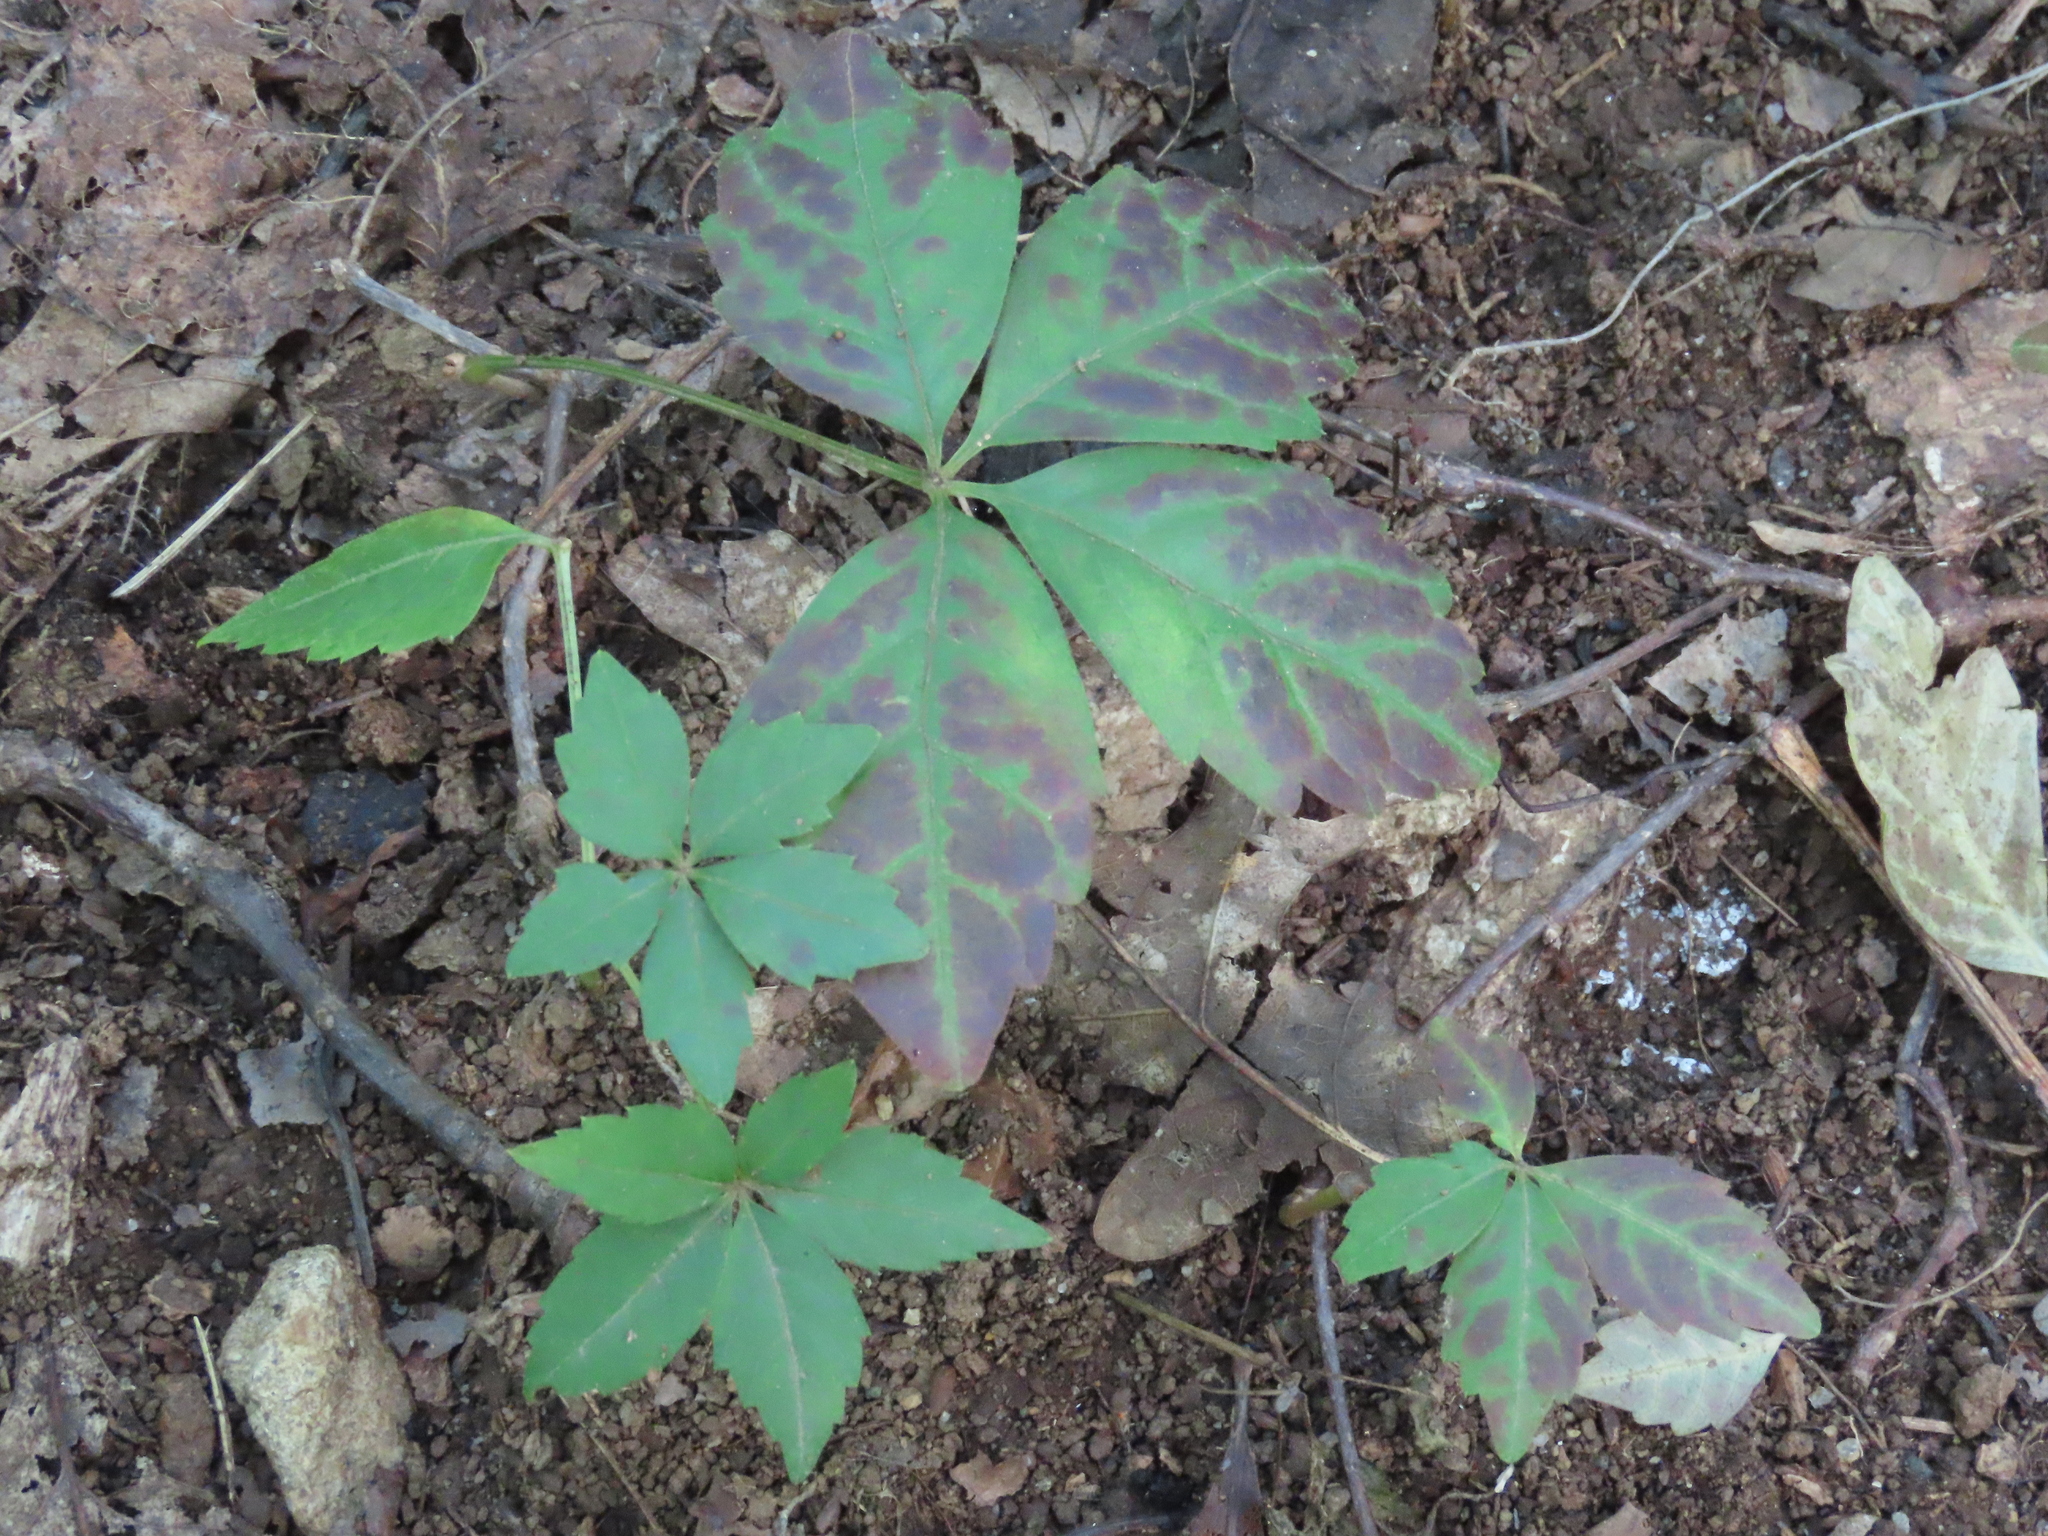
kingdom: Plantae
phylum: Tracheophyta
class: Magnoliopsida
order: Vitales
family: Vitaceae
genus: Parthenocissus
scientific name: Parthenocissus quinquefolia
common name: Virginia-creeper
